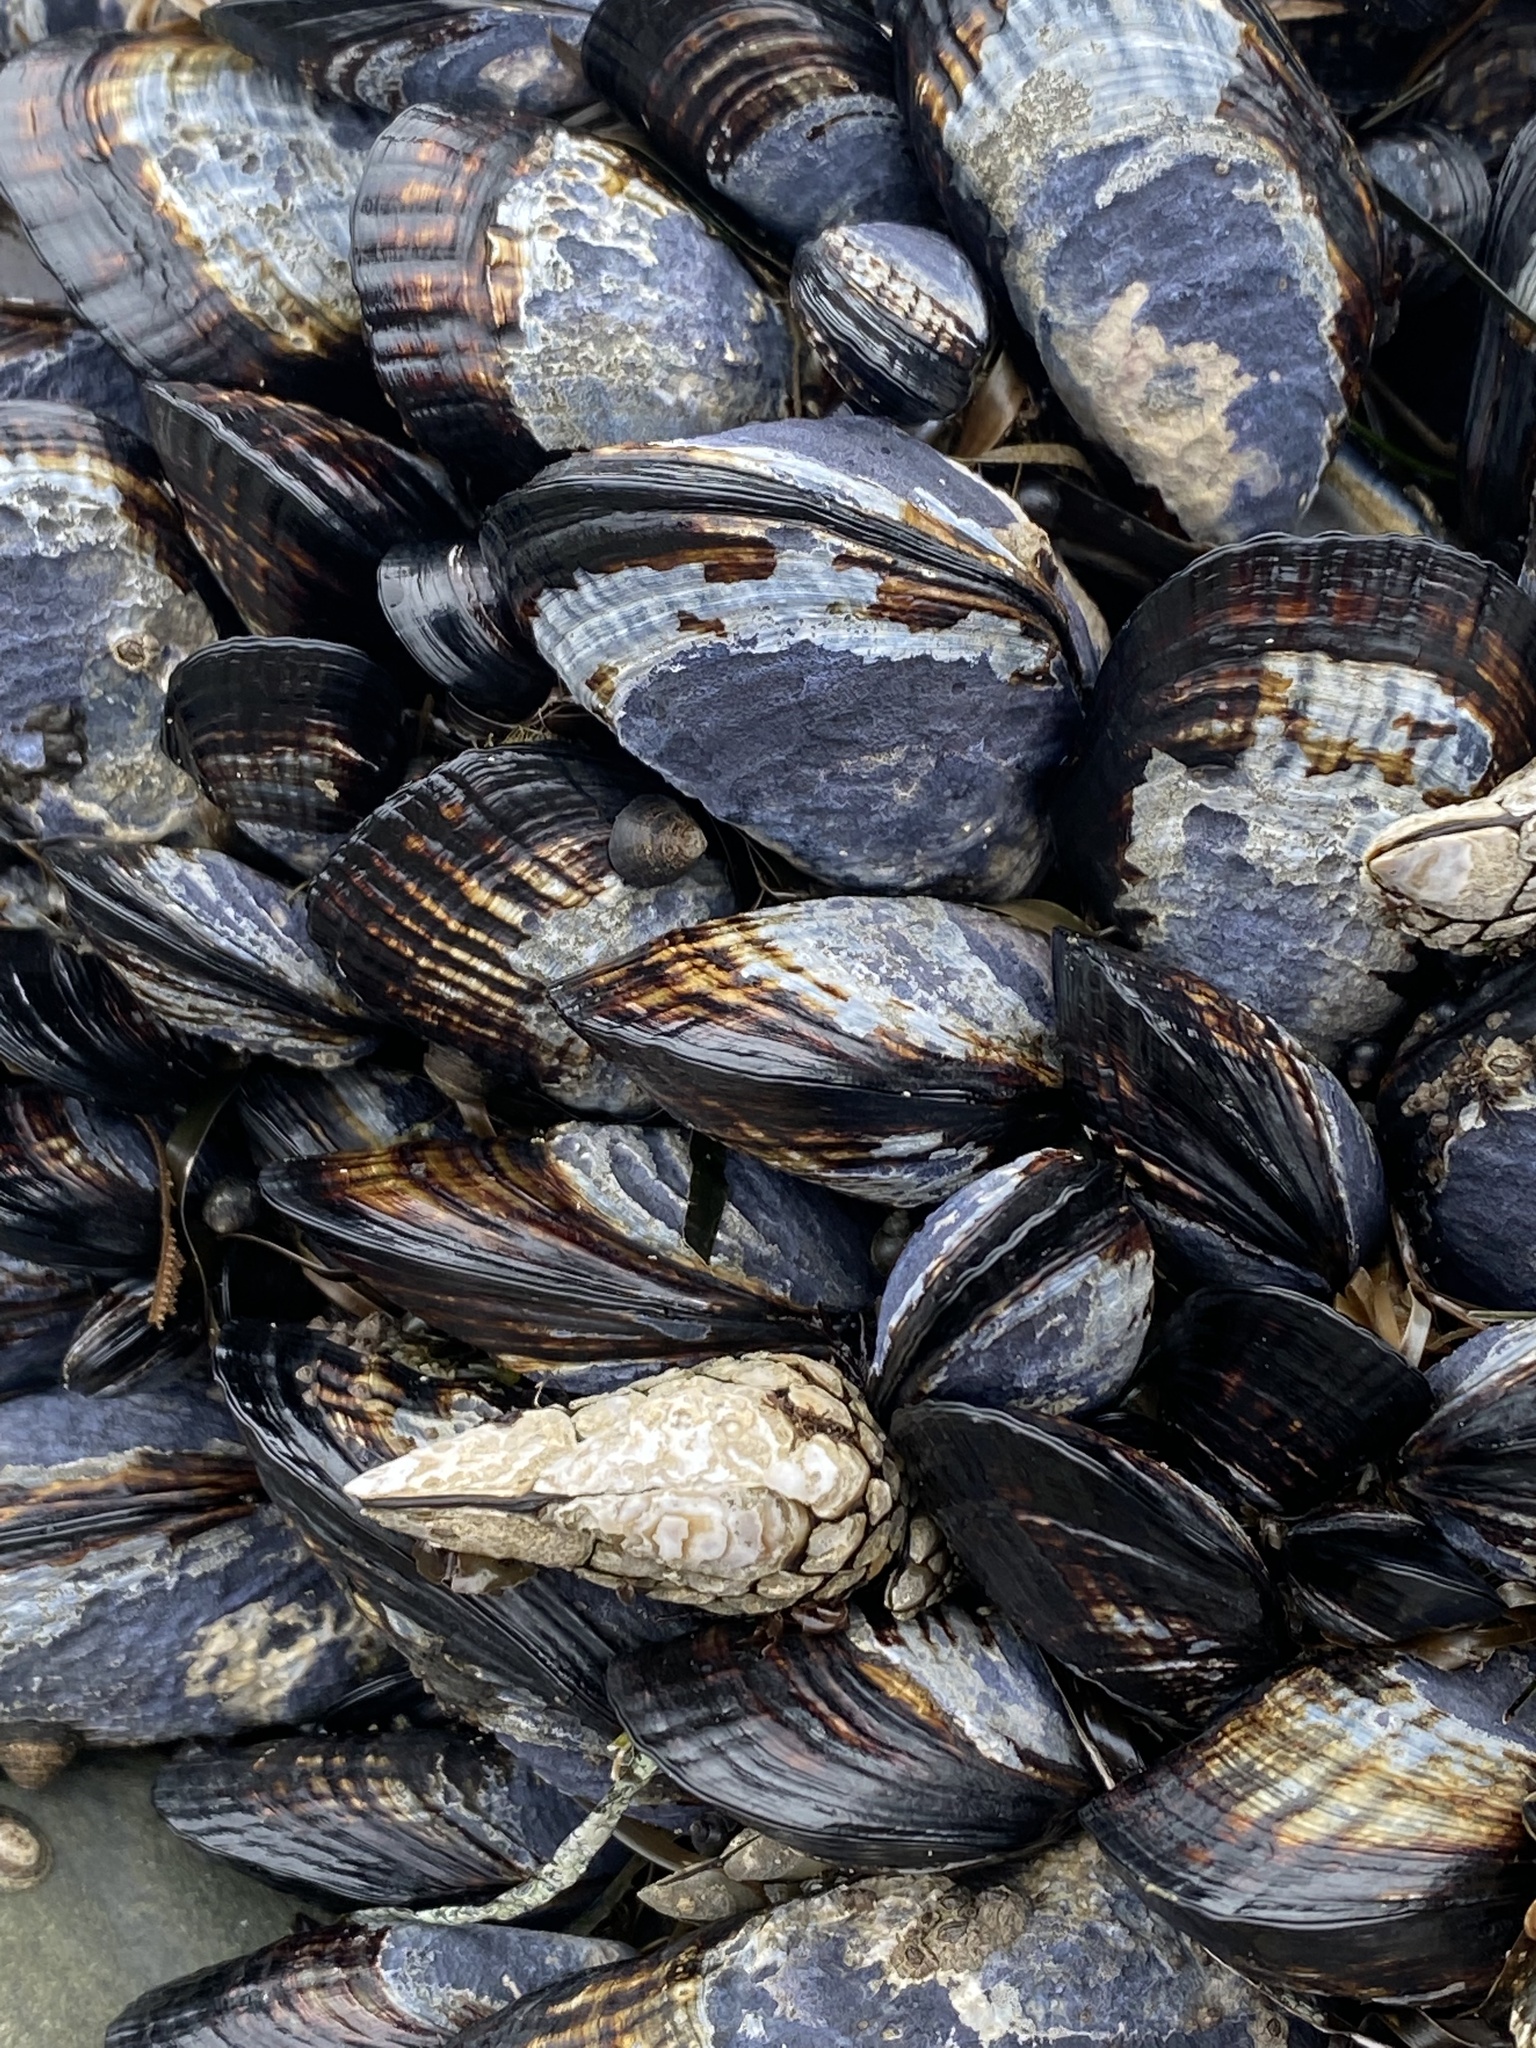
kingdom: Animalia
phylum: Mollusca
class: Bivalvia
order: Mytilida
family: Mytilidae
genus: Mytilus
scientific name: Mytilus californianus
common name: California mussel
